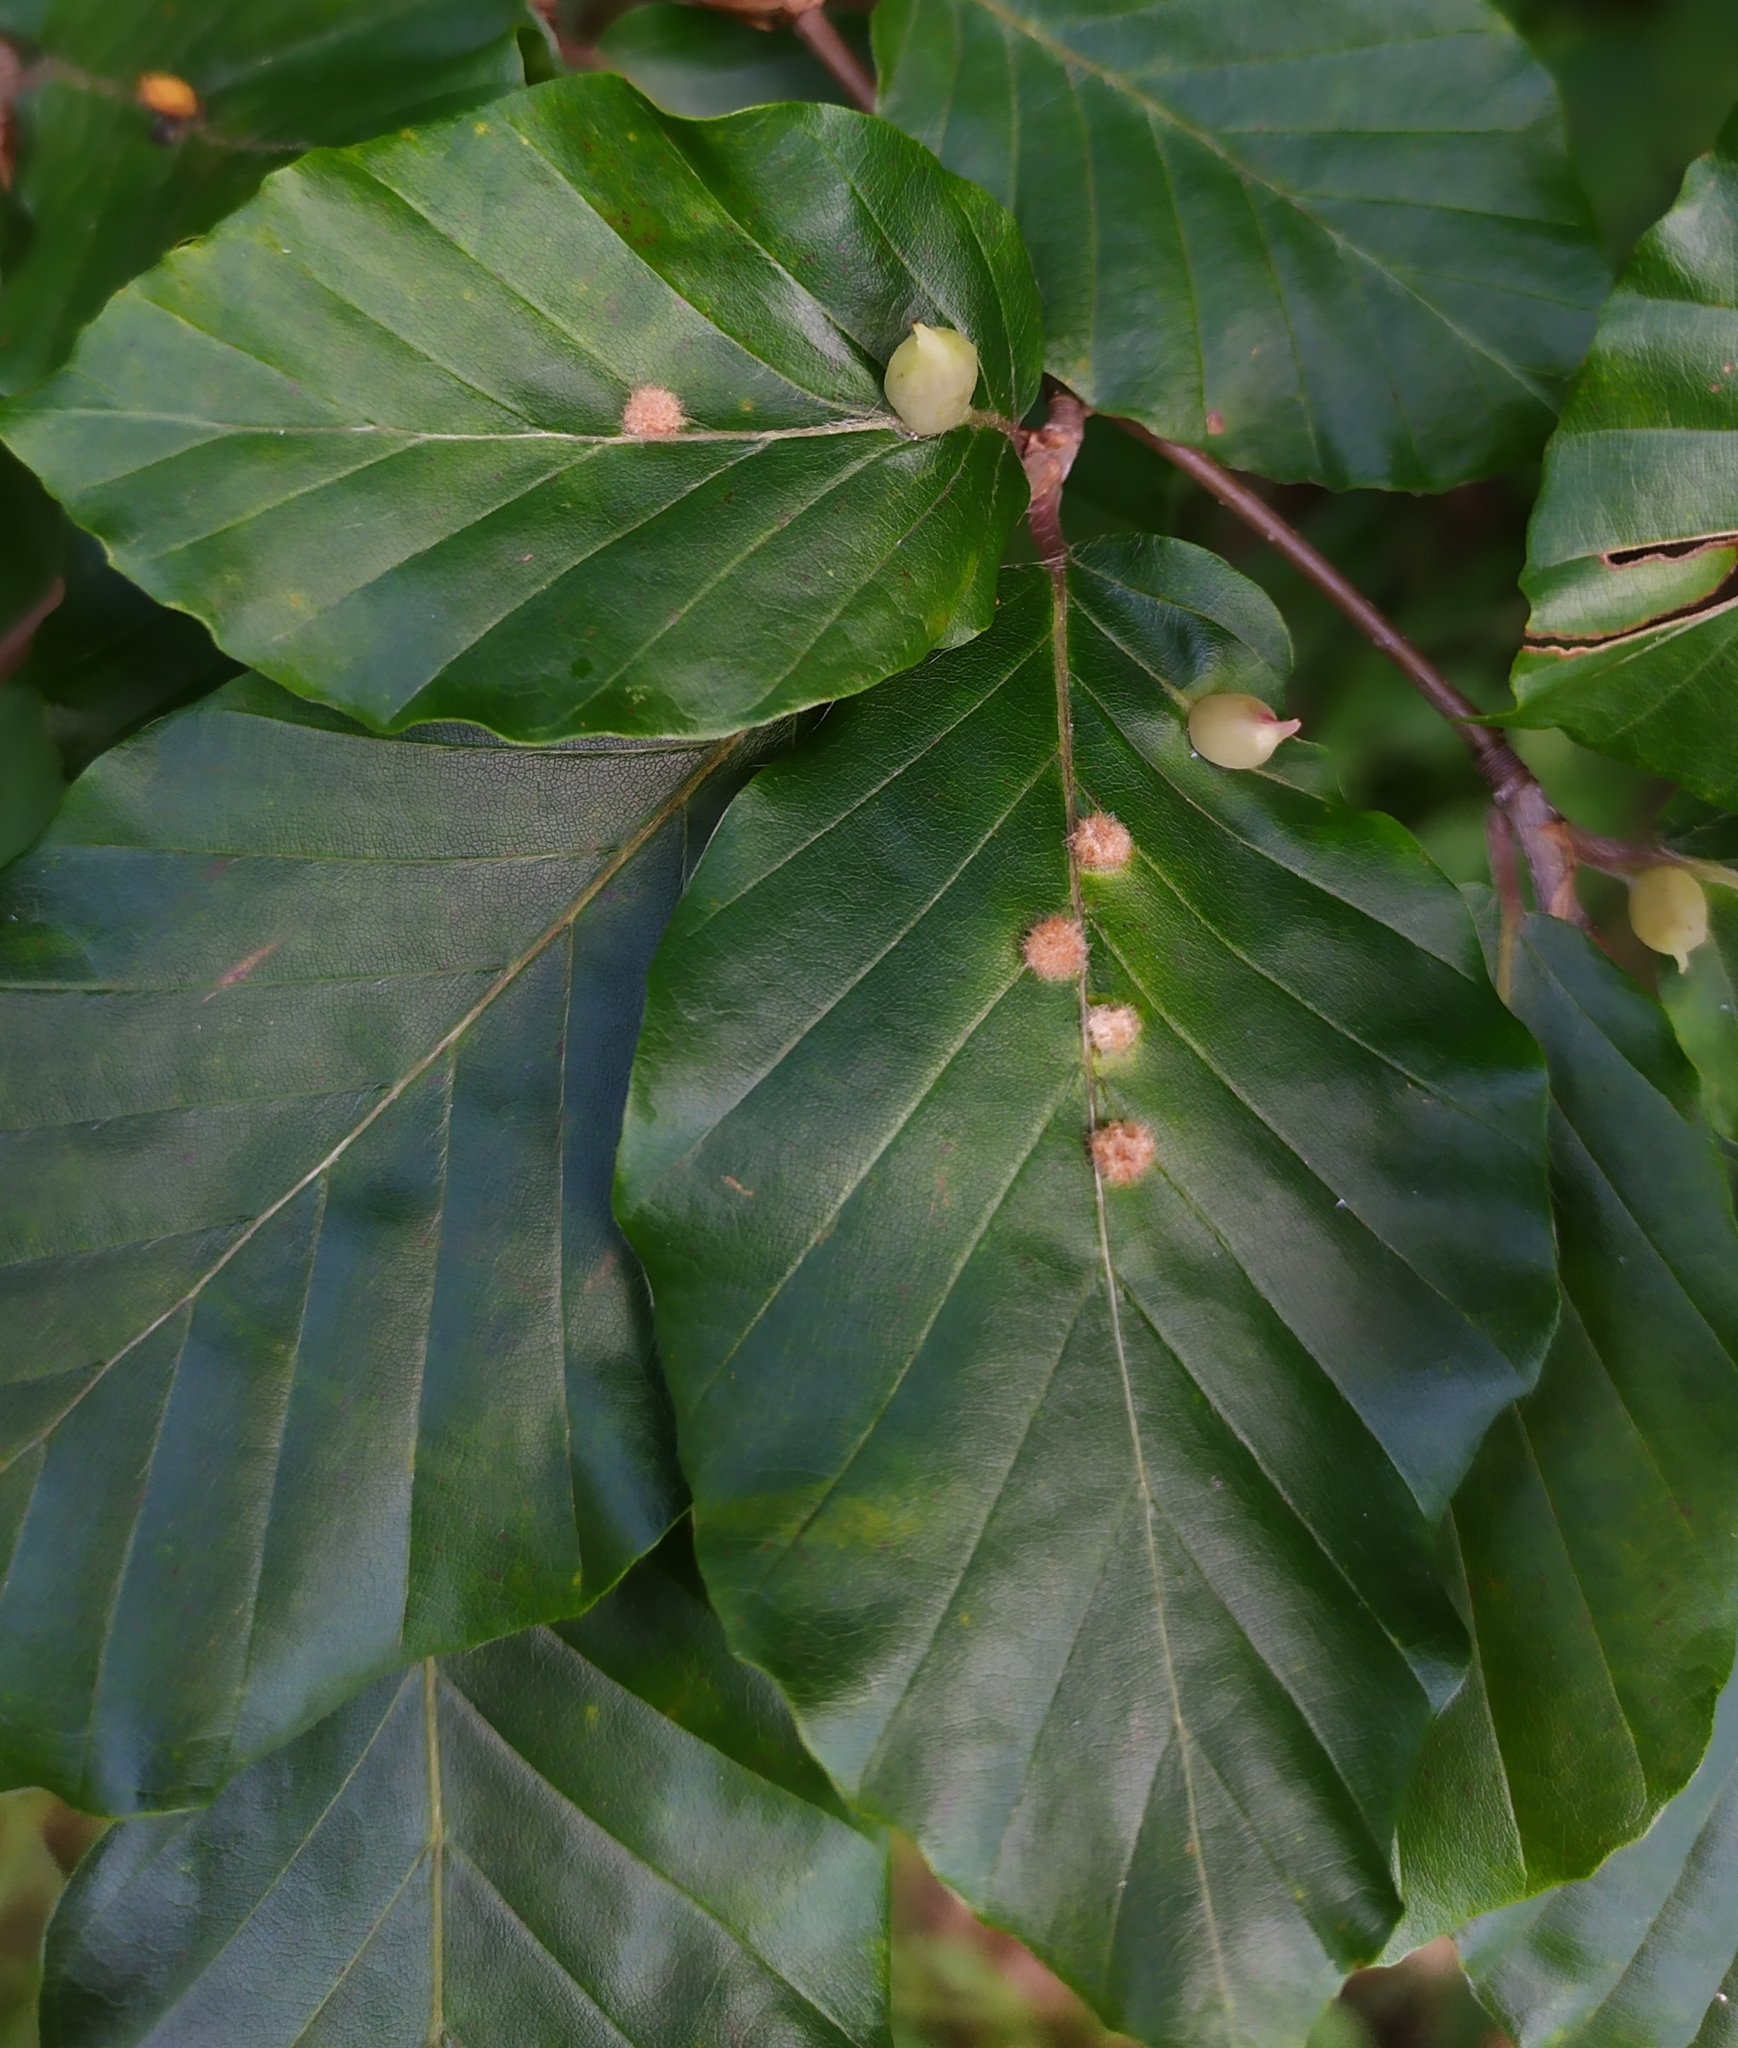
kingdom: Animalia
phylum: Arthropoda
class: Insecta
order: Diptera
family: Cecidomyiidae
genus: Hartigiola
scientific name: Hartigiola annulipes
